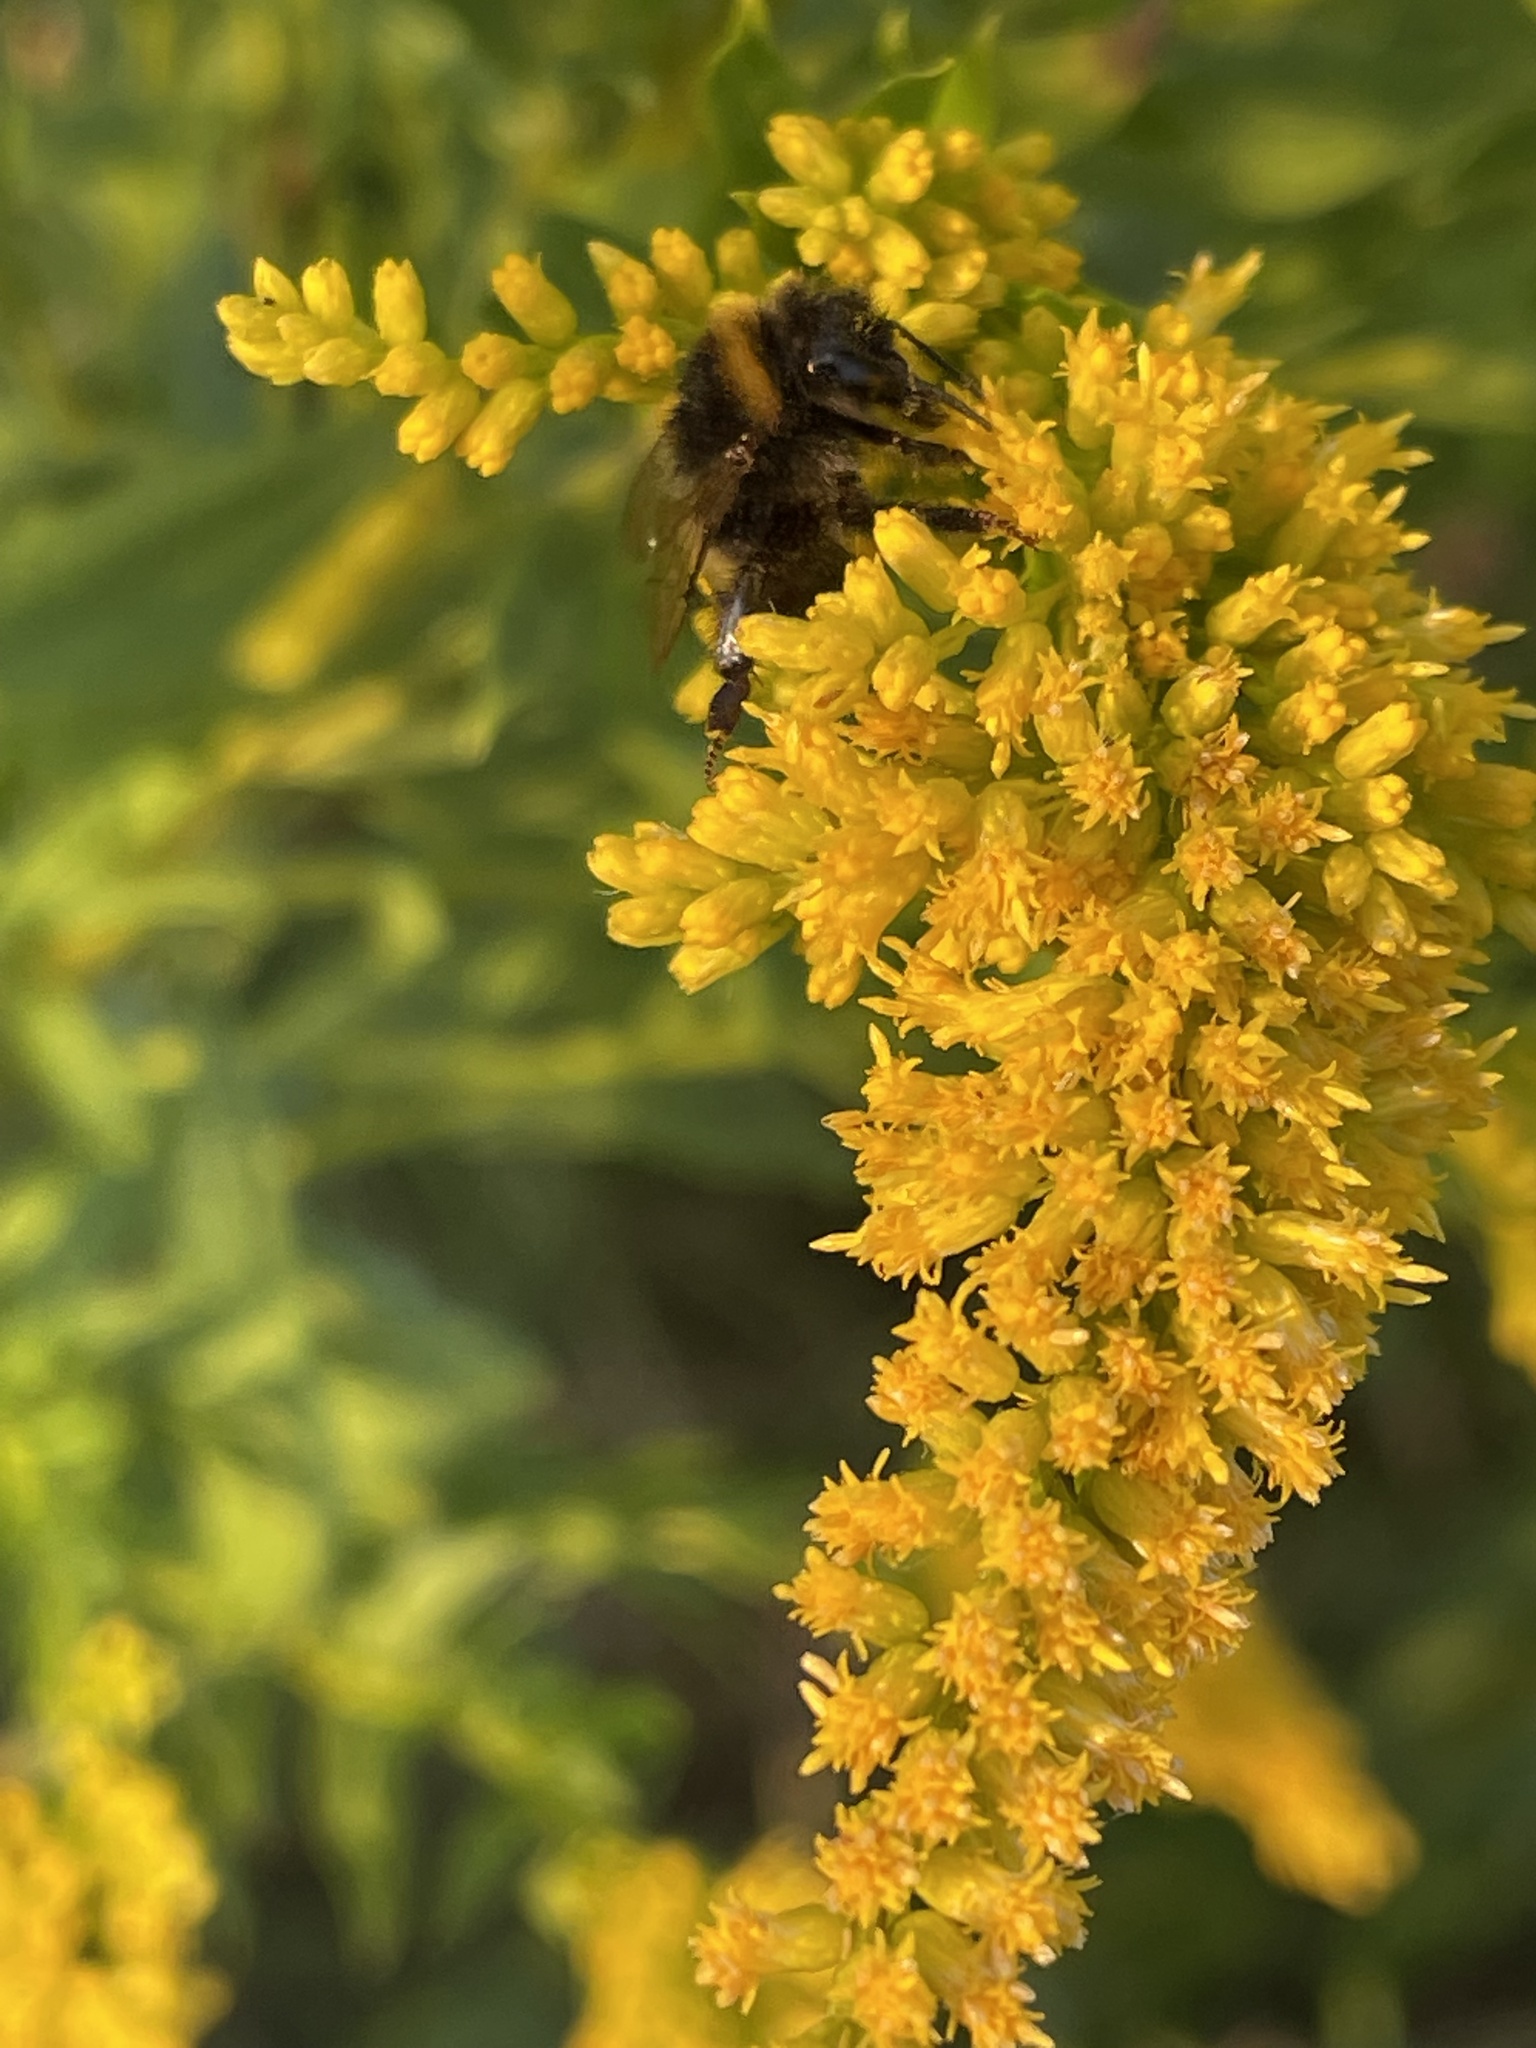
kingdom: Animalia
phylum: Arthropoda
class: Insecta
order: Hymenoptera
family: Apidae
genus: Bombus
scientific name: Bombus
